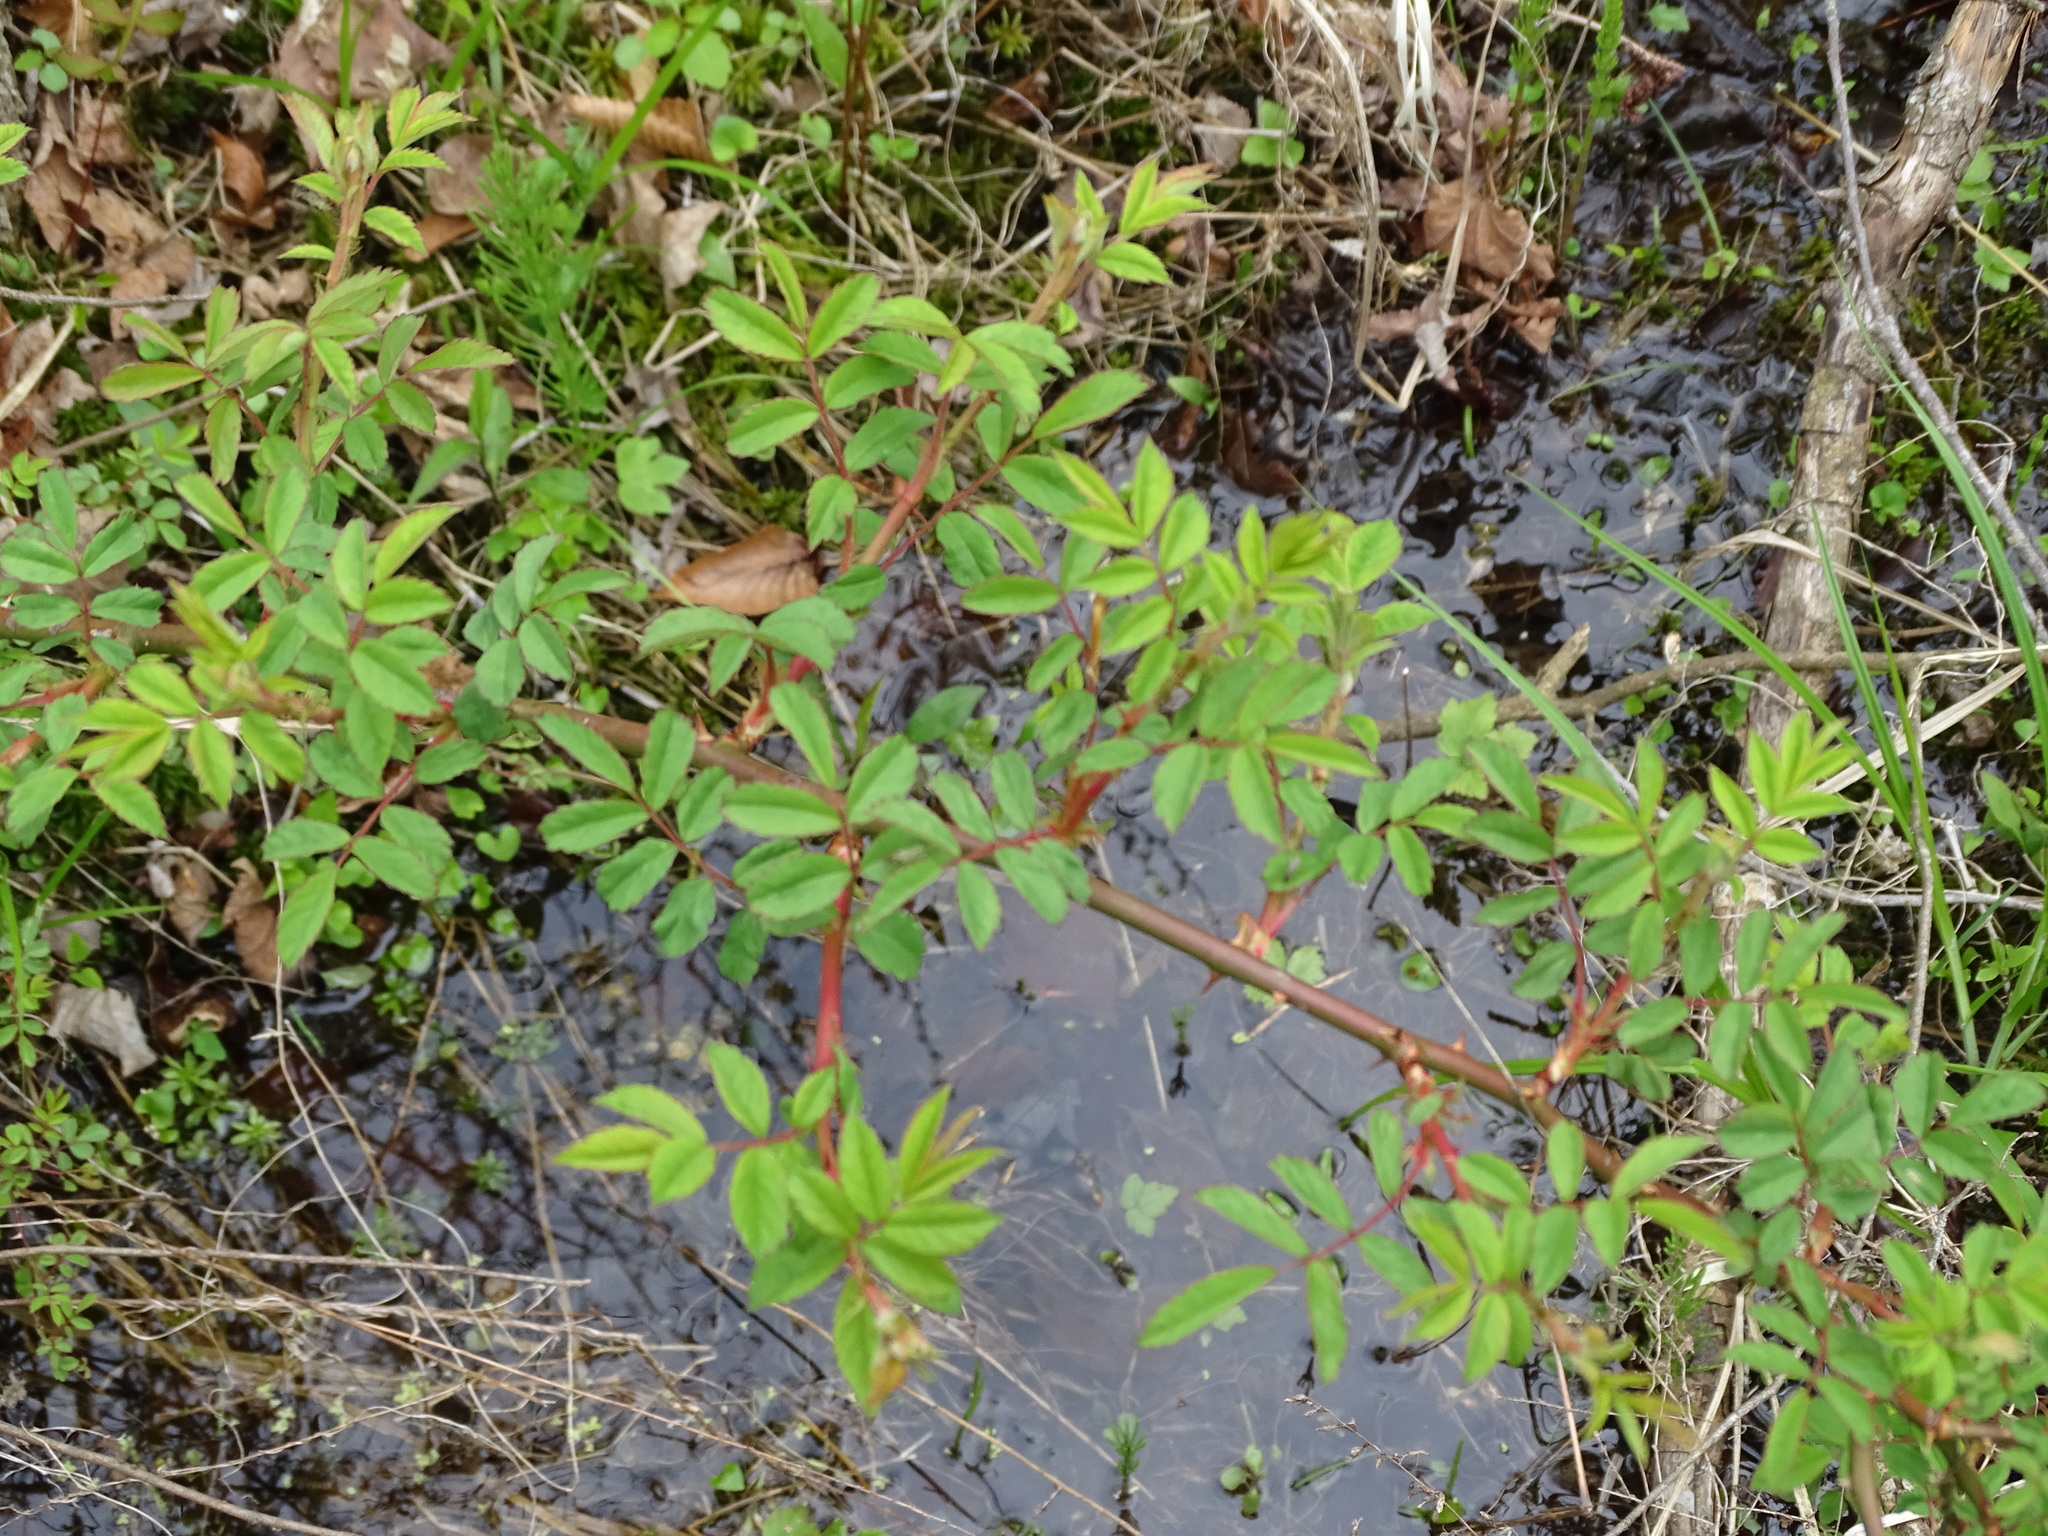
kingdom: Plantae
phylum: Tracheophyta
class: Magnoliopsida
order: Rosales
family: Rosaceae
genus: Rosa
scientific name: Rosa multiflora
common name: Multiflora rose
